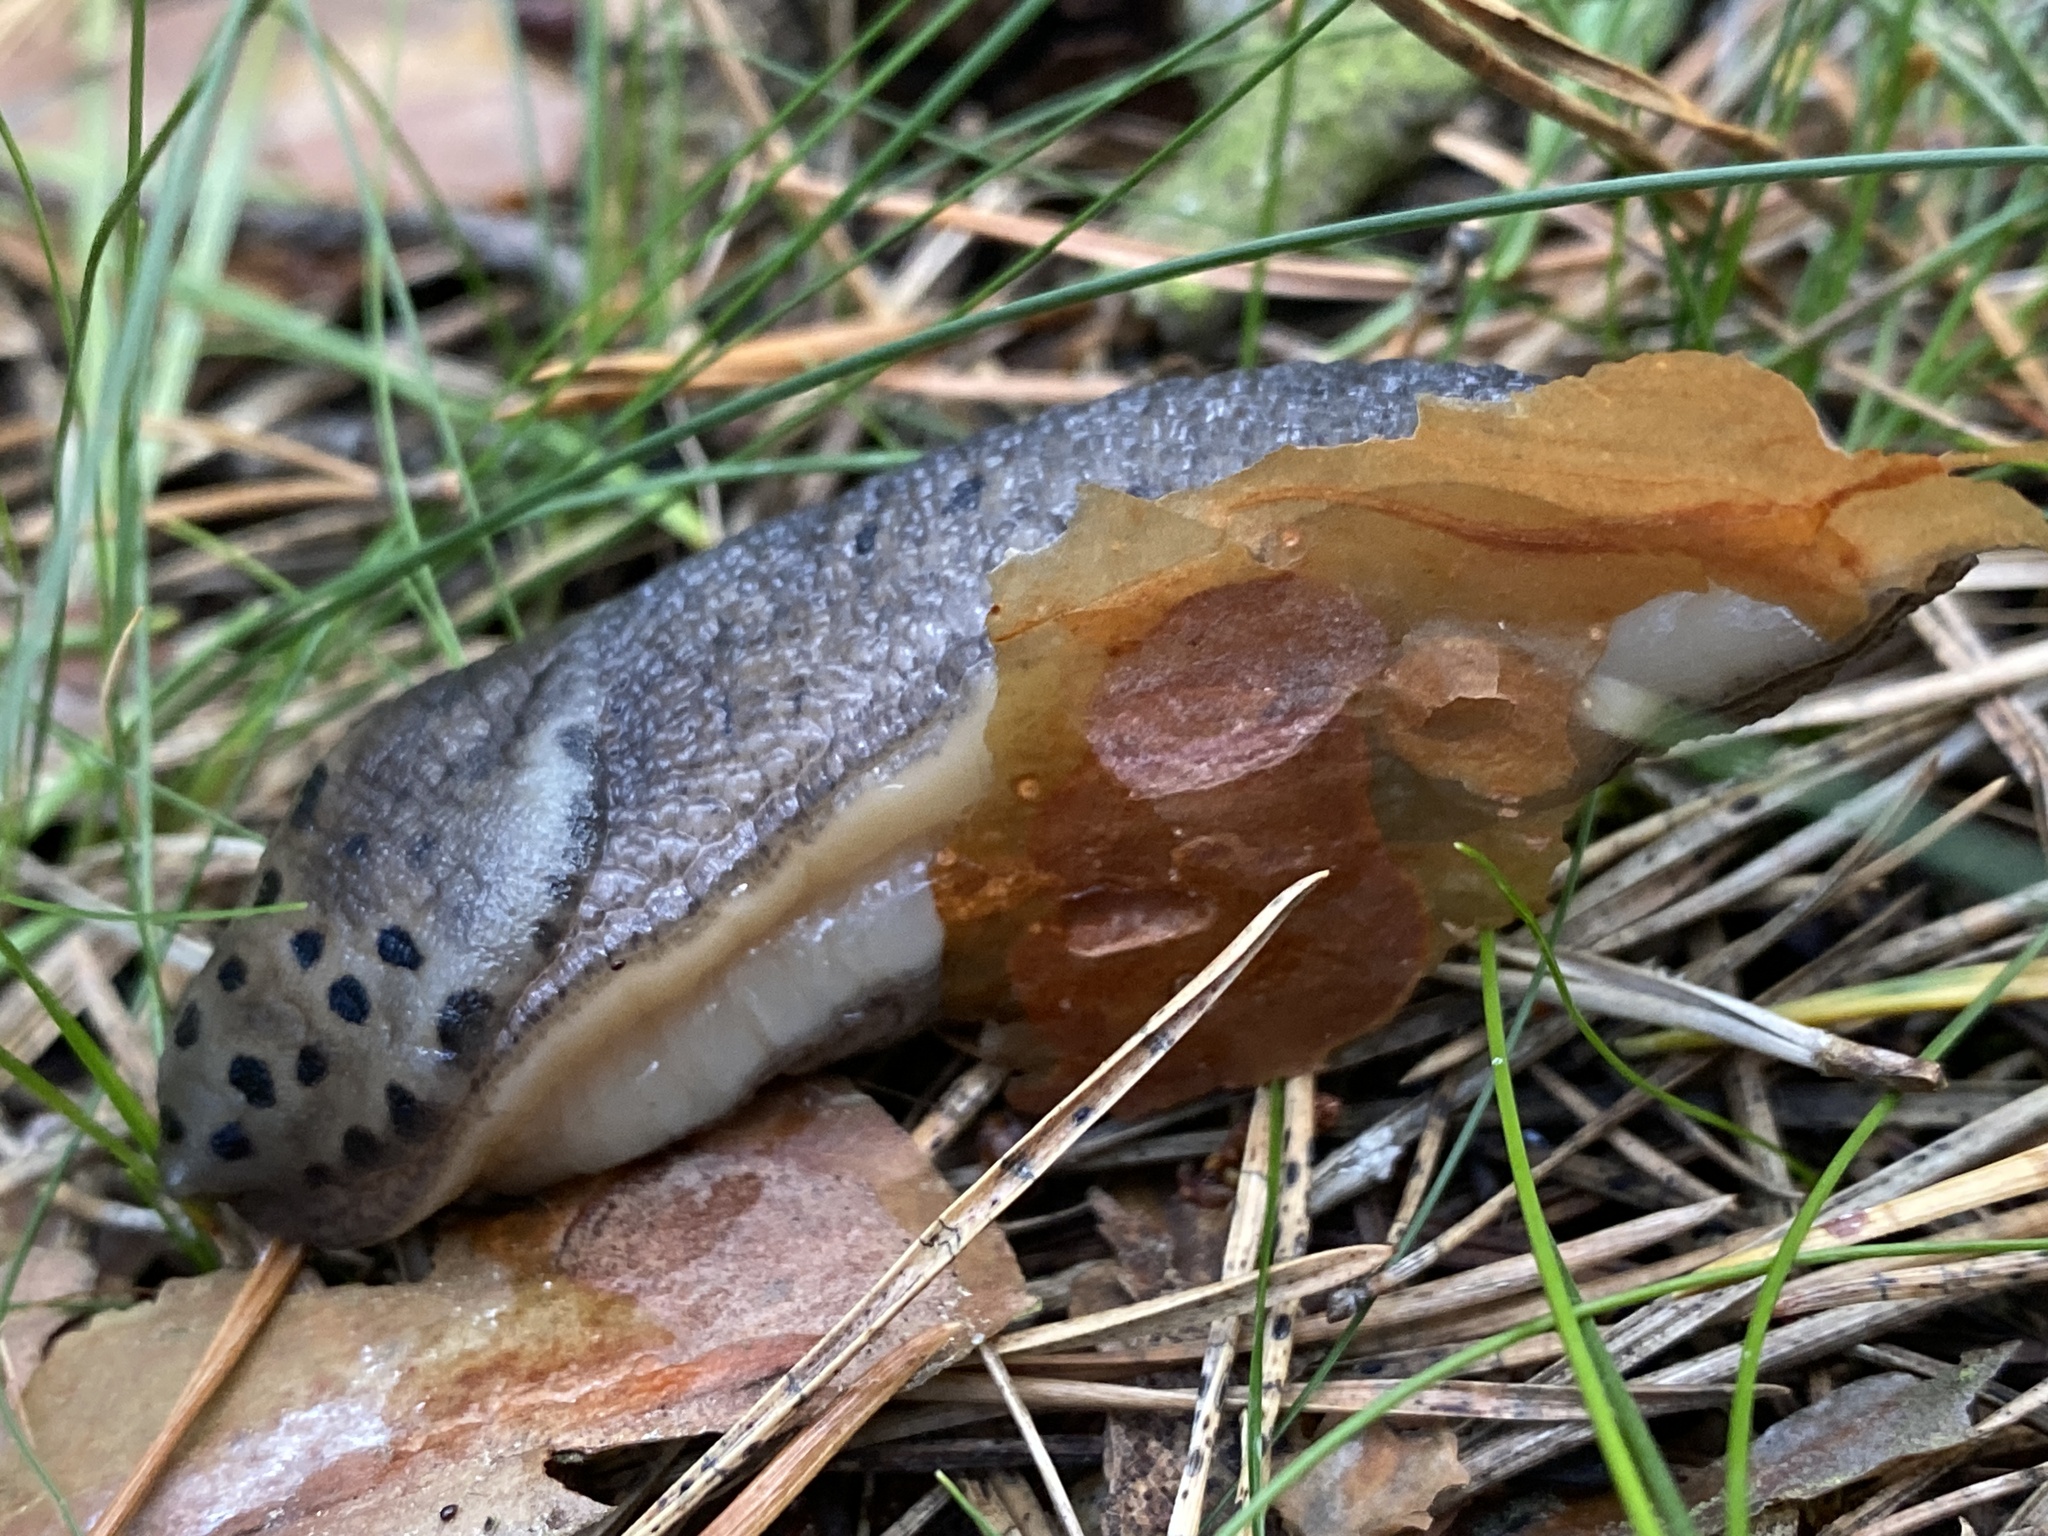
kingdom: Animalia
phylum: Mollusca
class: Gastropoda
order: Stylommatophora
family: Limacidae
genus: Limax
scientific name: Limax maximus
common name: Great grey slug
